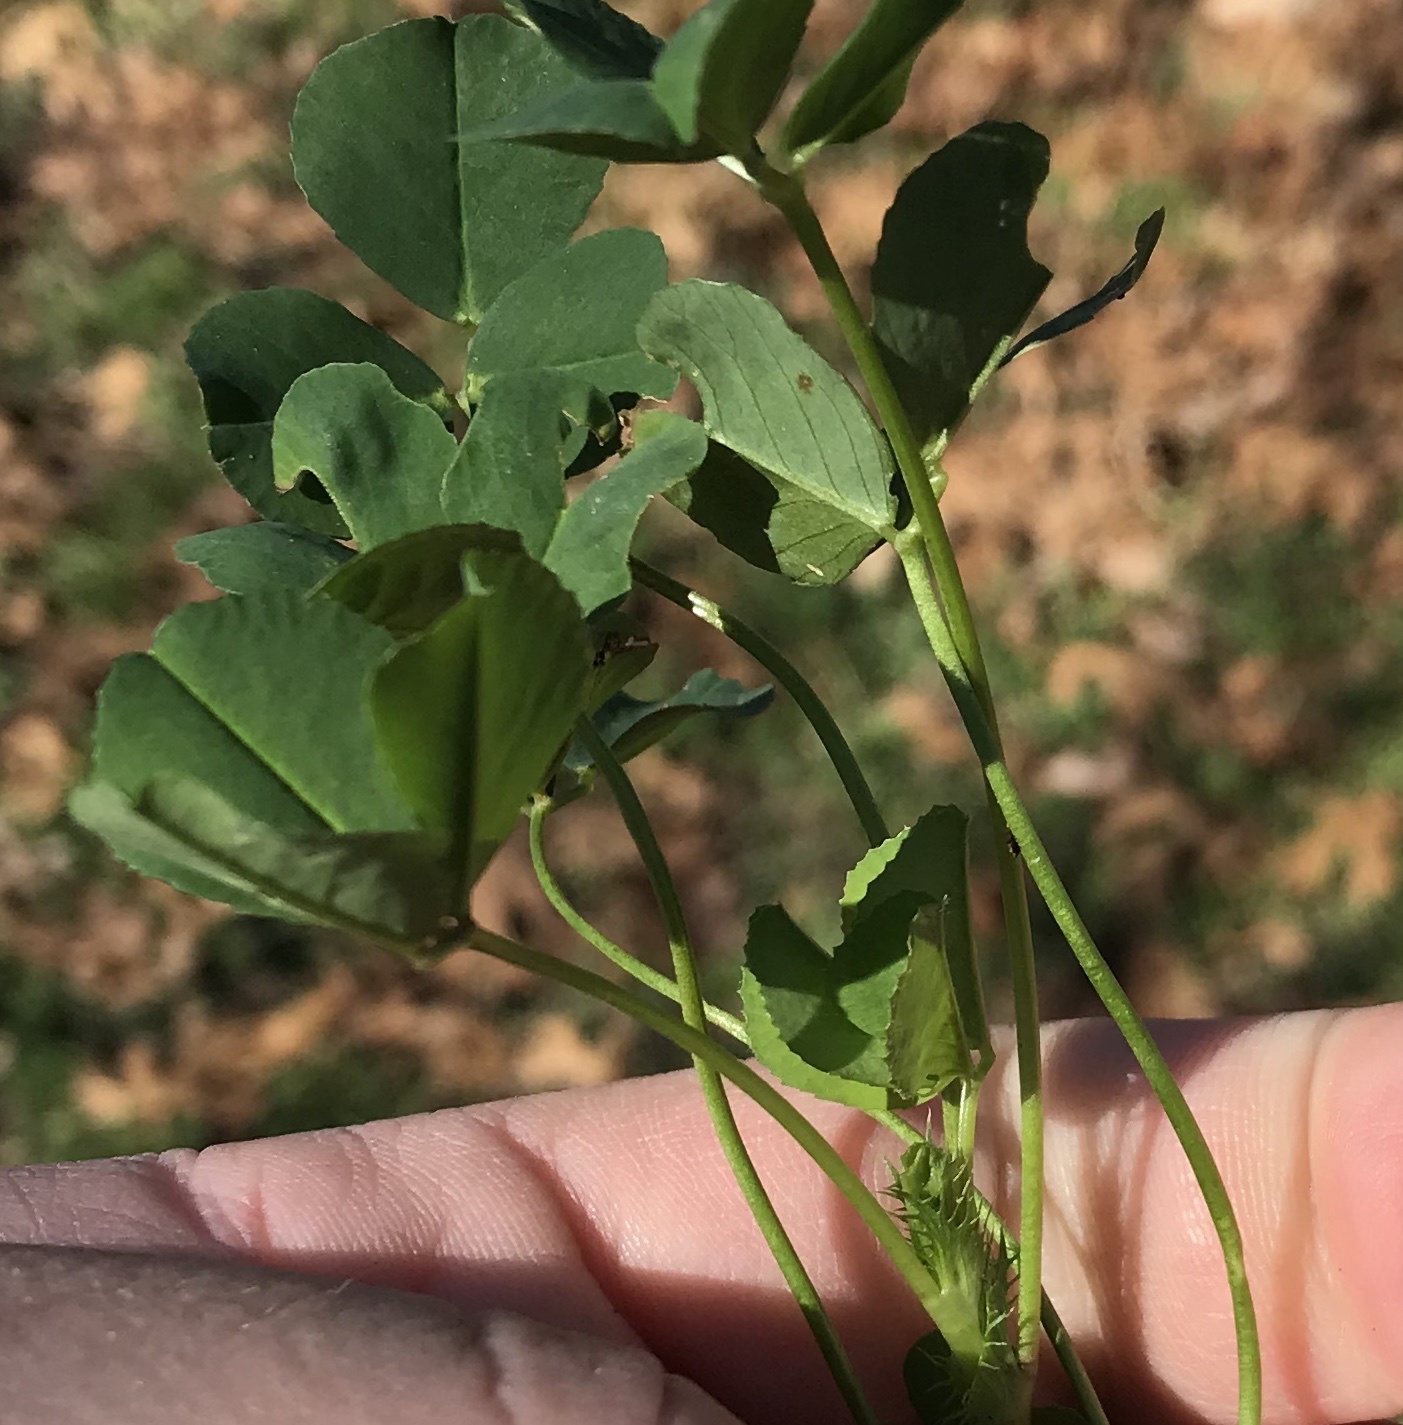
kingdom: Plantae
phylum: Tracheophyta
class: Magnoliopsida
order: Fabales
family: Fabaceae
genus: Medicago
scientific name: Medicago polymorpha
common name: Burclover
